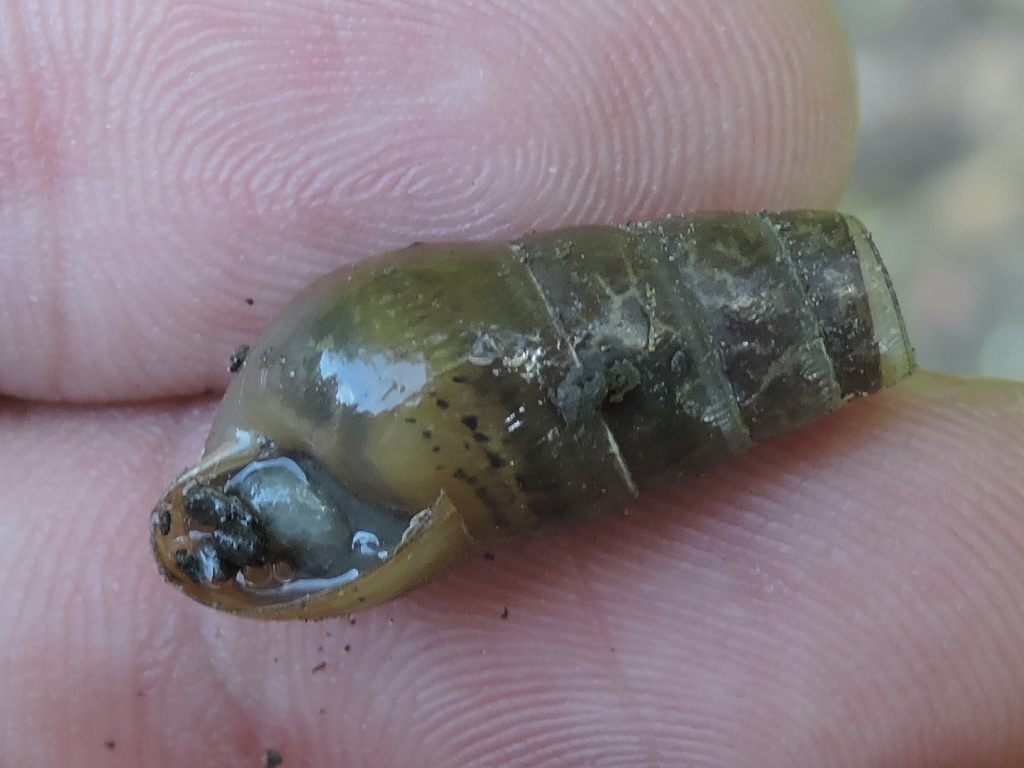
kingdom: Animalia
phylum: Mollusca
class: Gastropoda
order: Stylommatophora
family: Achatinidae
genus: Rumina
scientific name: Rumina decollata
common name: Decollate snail
